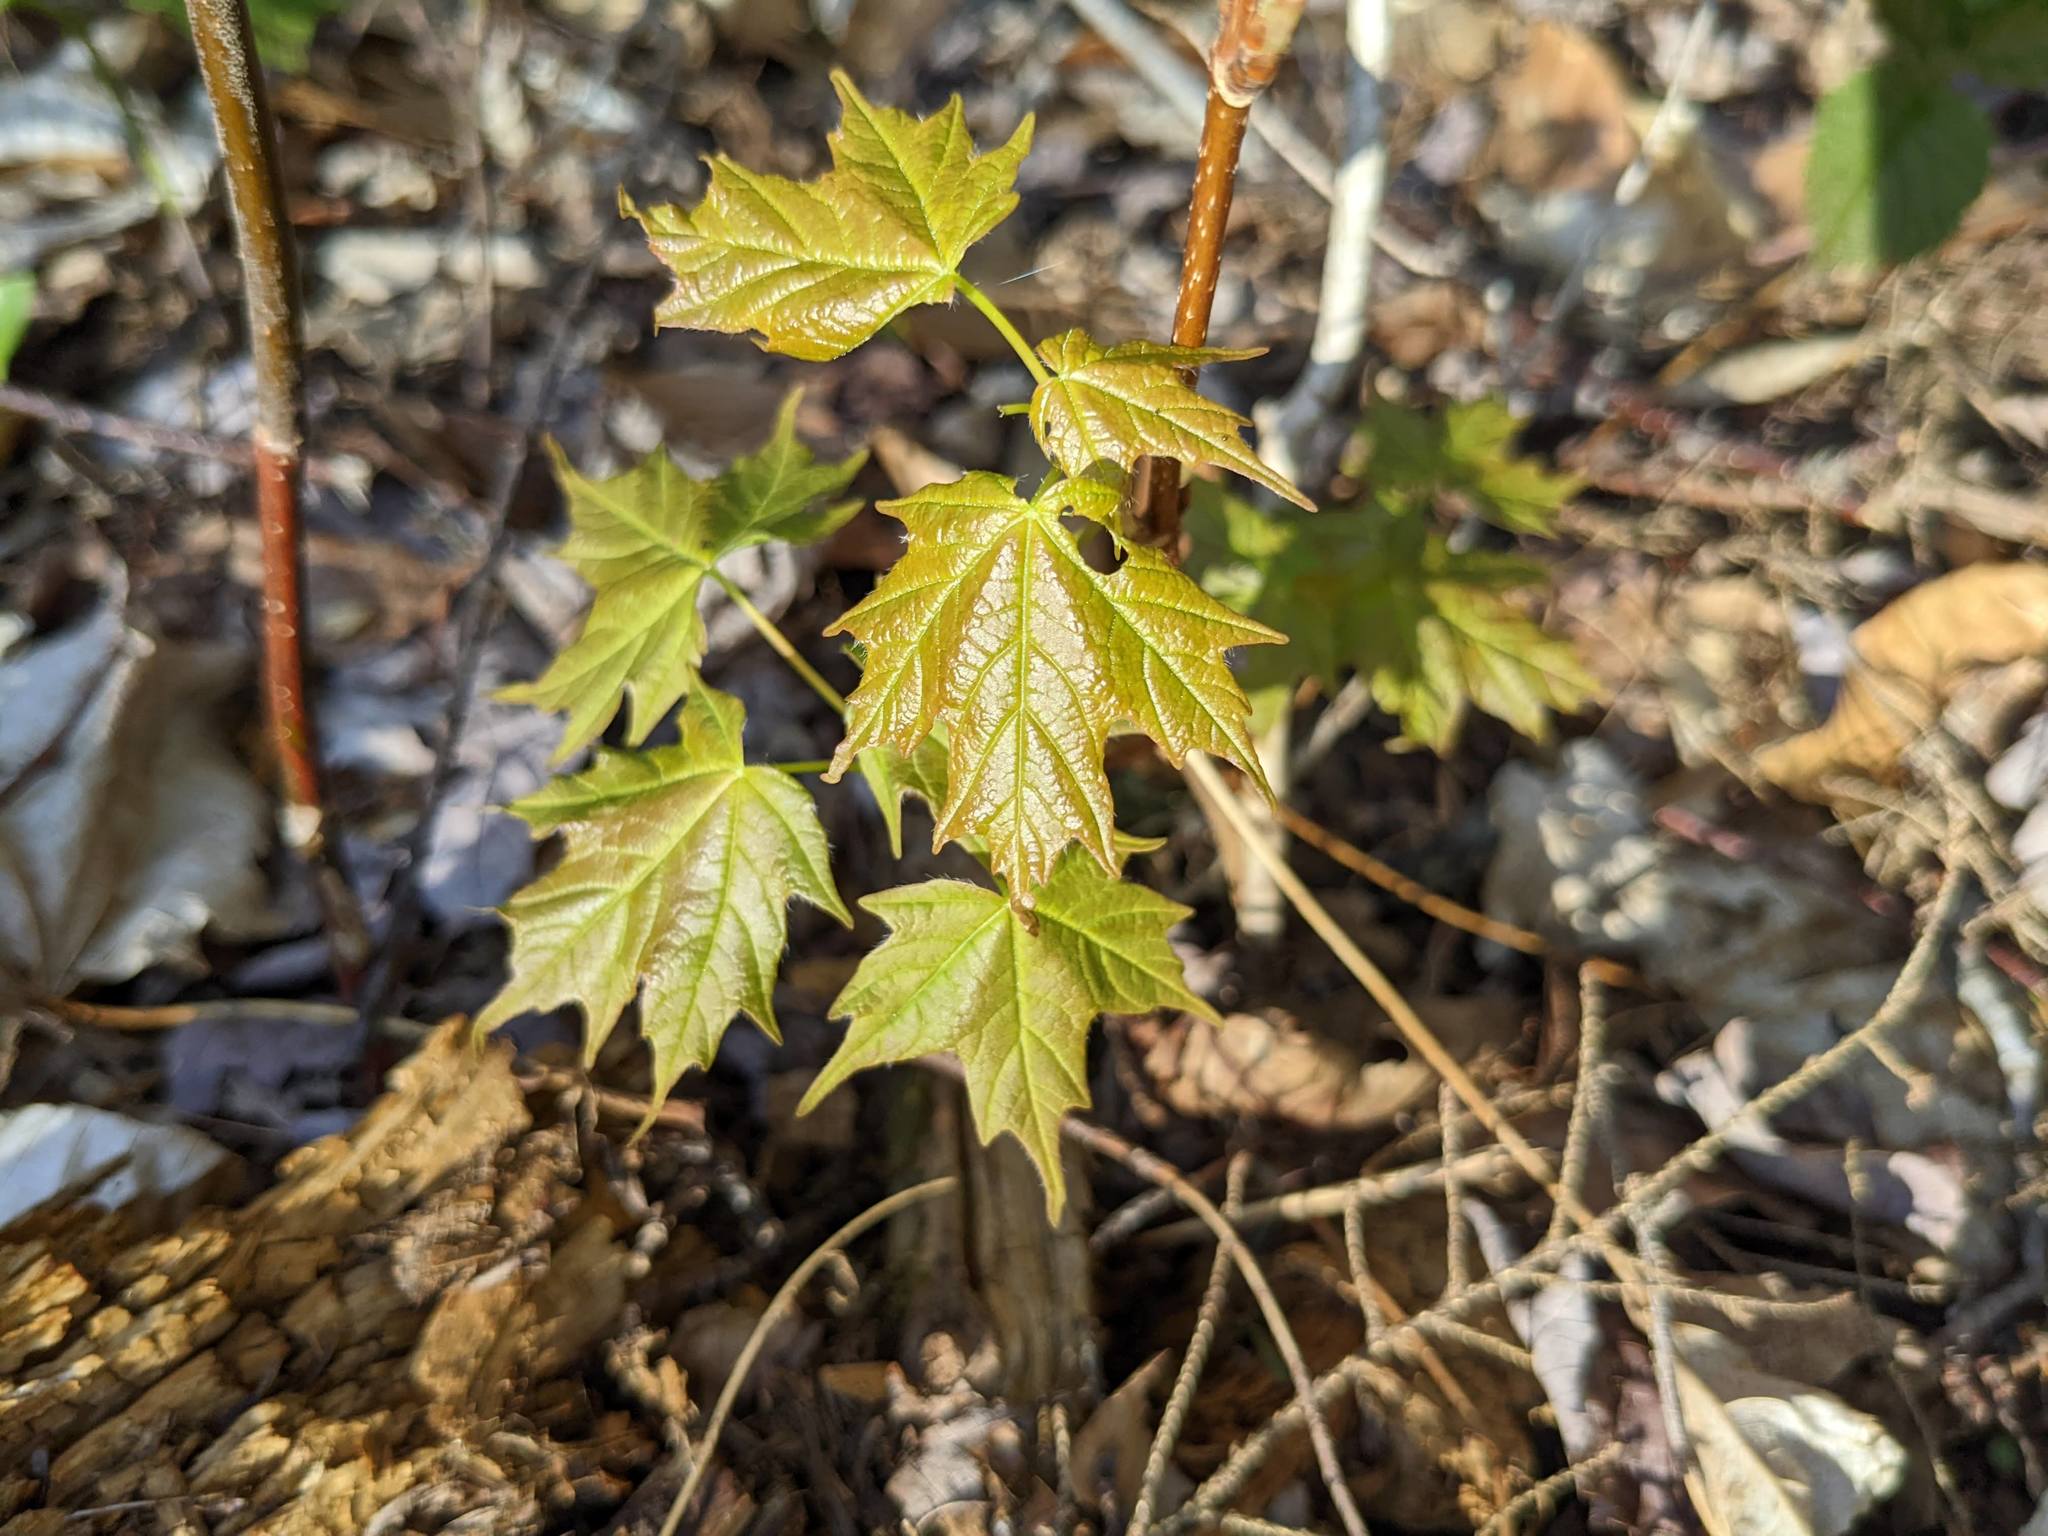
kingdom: Plantae
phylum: Tracheophyta
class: Magnoliopsida
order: Sapindales
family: Sapindaceae
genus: Acer
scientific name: Acer saccharum
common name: Sugar maple
